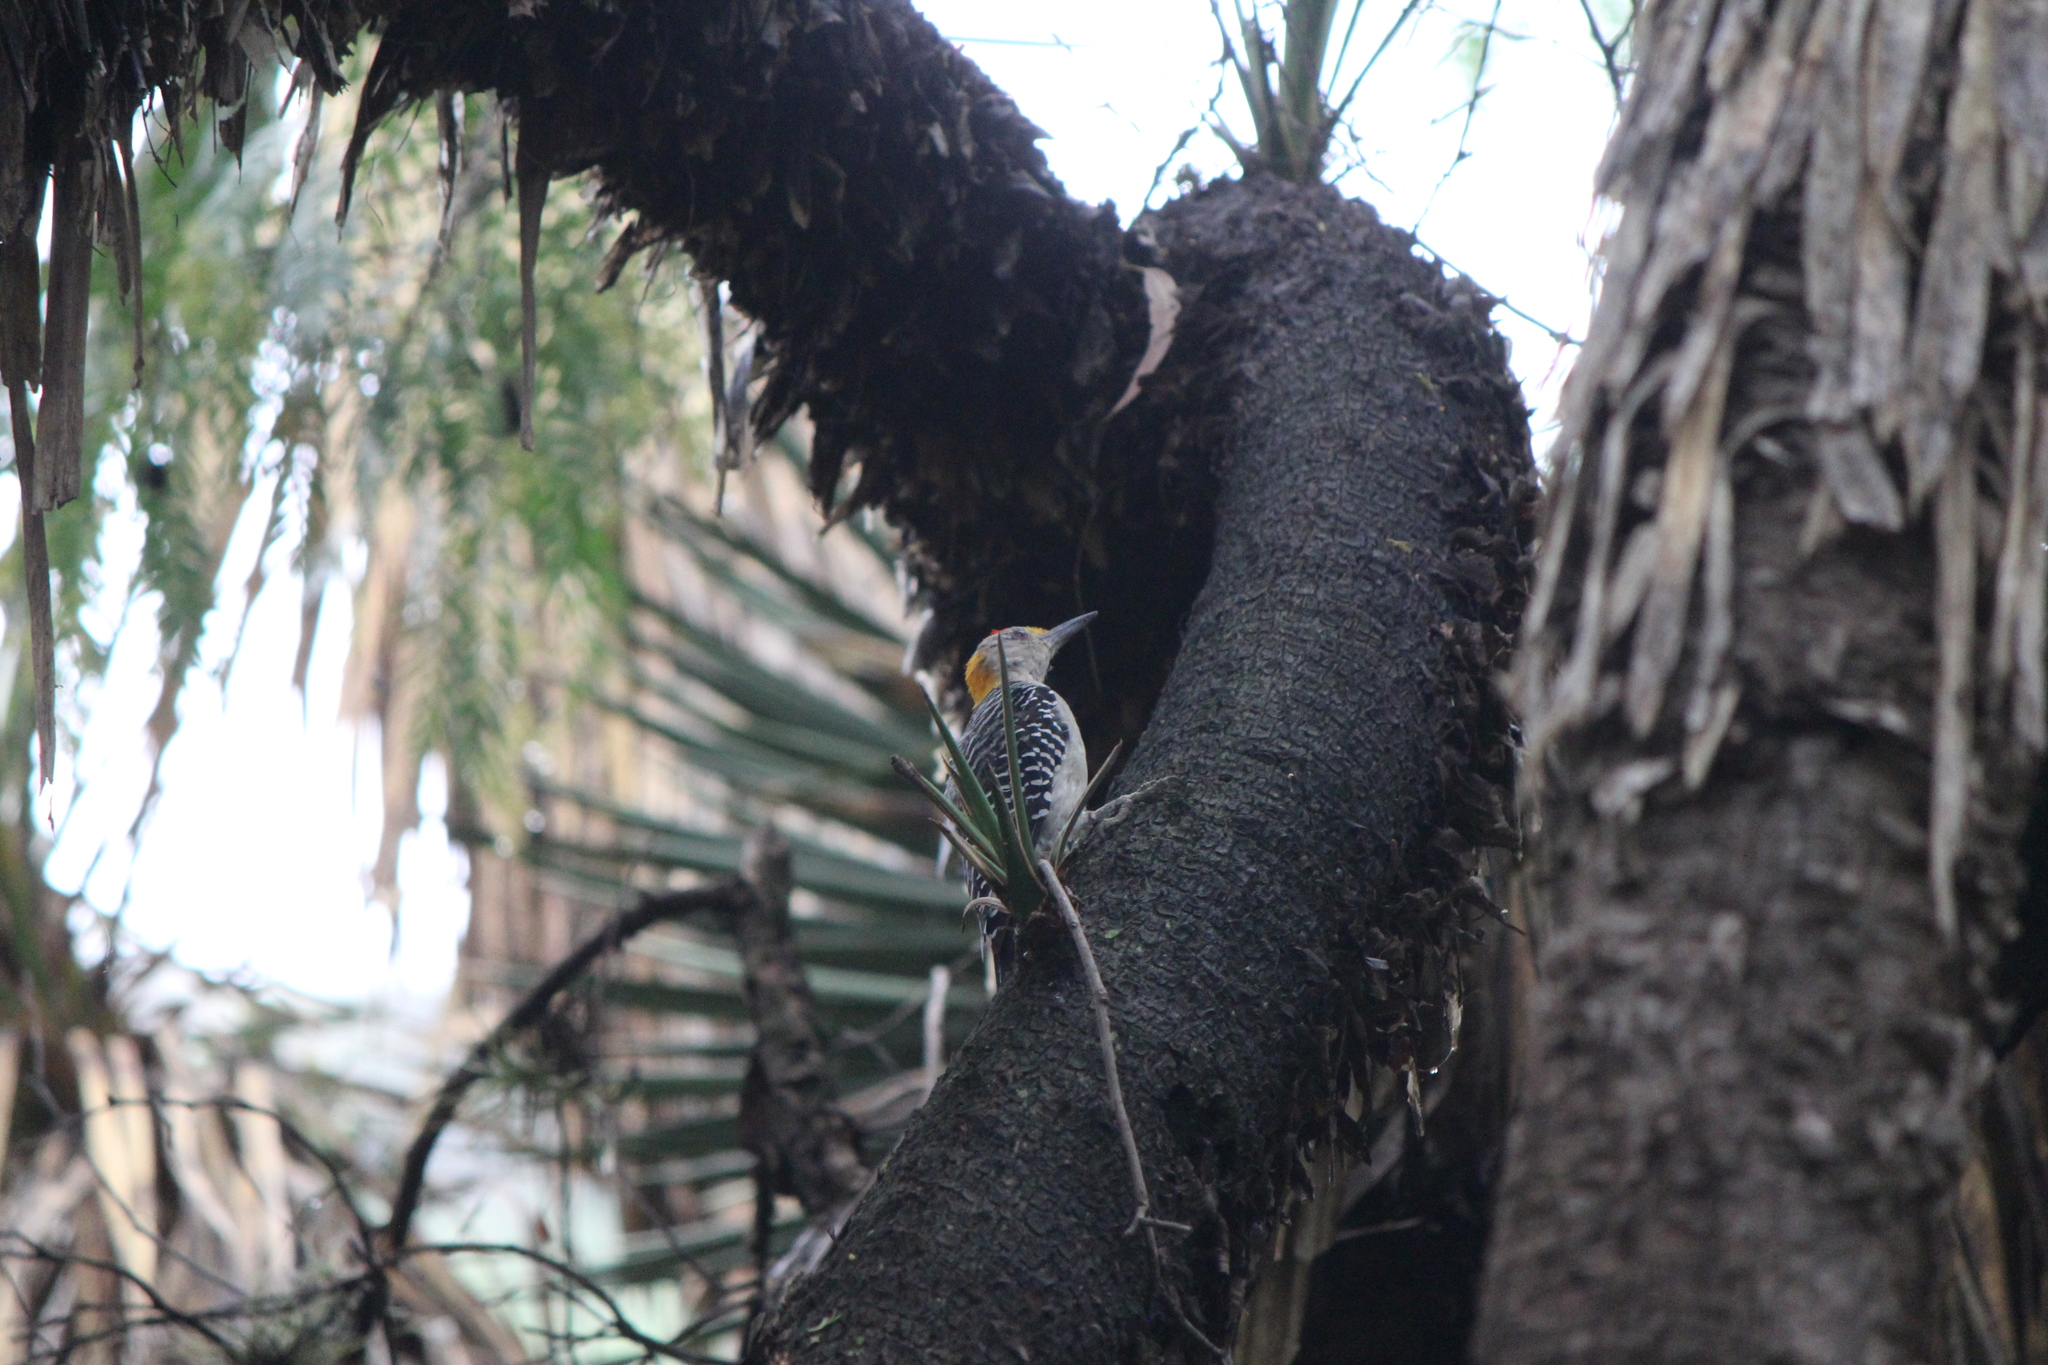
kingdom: Animalia
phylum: Chordata
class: Aves
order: Piciformes
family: Picidae
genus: Melanerpes
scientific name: Melanerpes aurifrons
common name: Golden-fronted woodpecker
